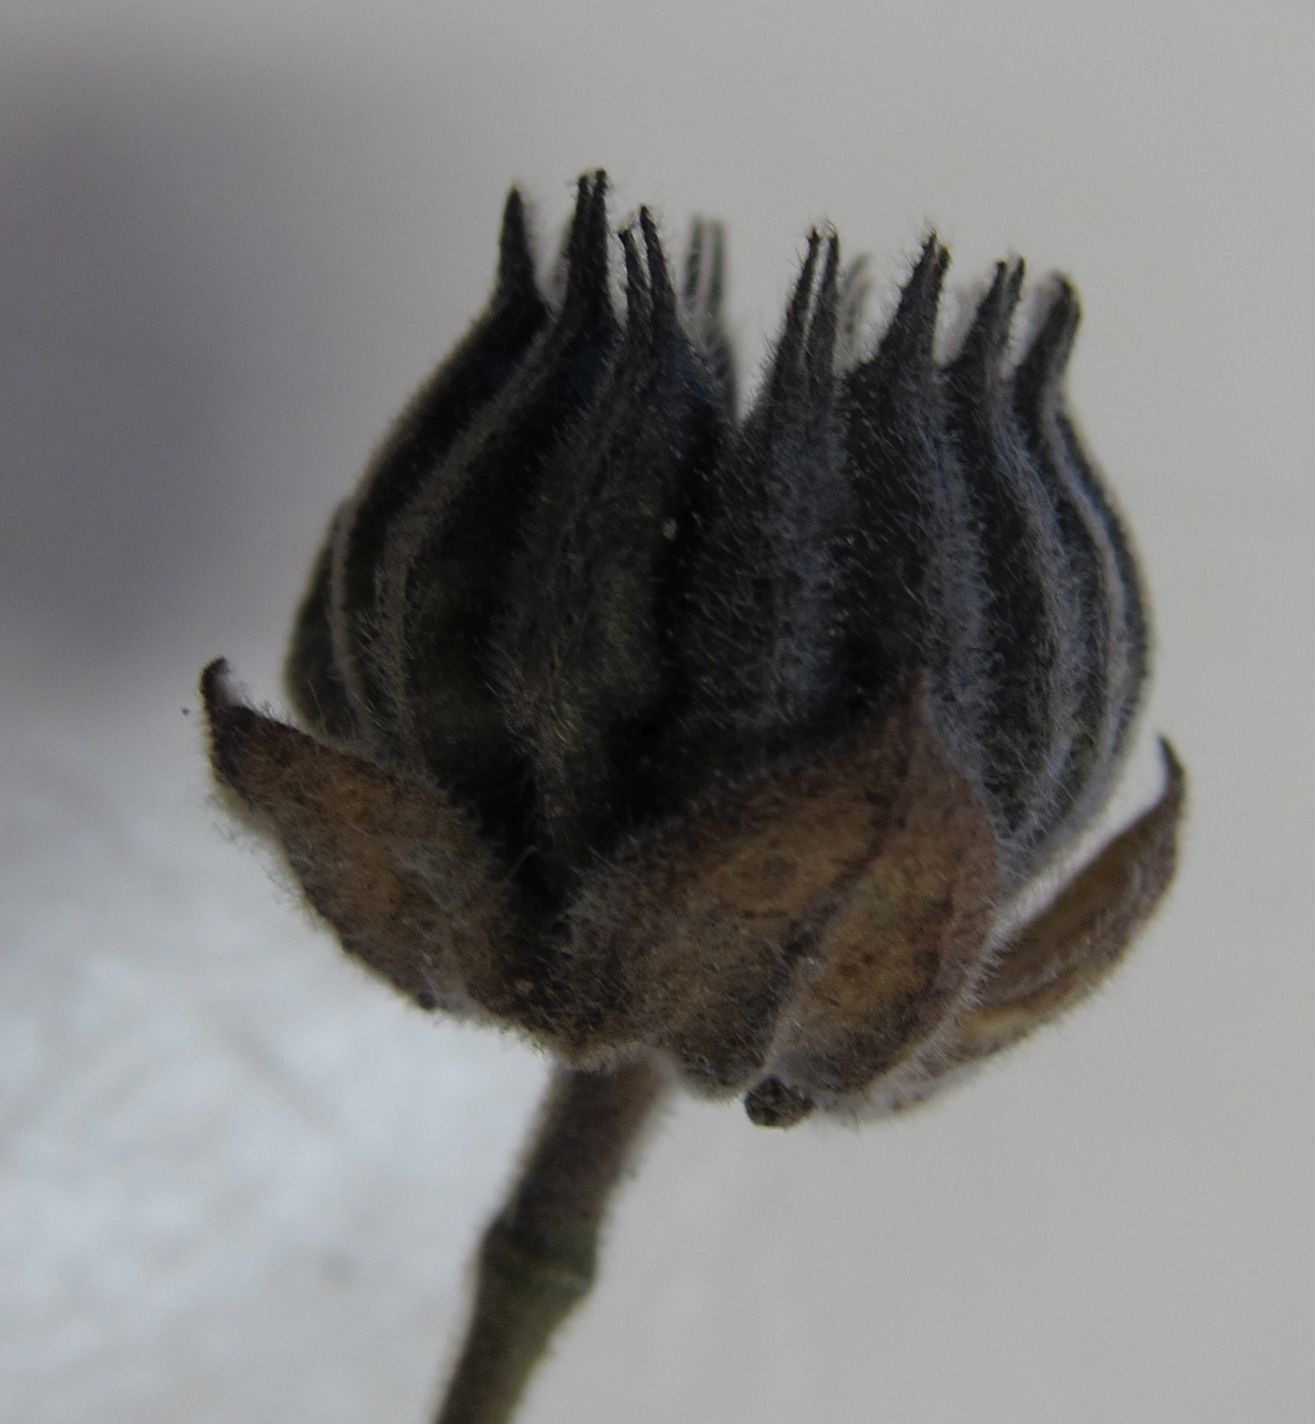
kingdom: Plantae
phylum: Tracheophyta
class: Magnoliopsida
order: Malvales
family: Malvaceae
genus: Abutilon
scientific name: Abutilon theophrasti
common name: Velvetleaf
